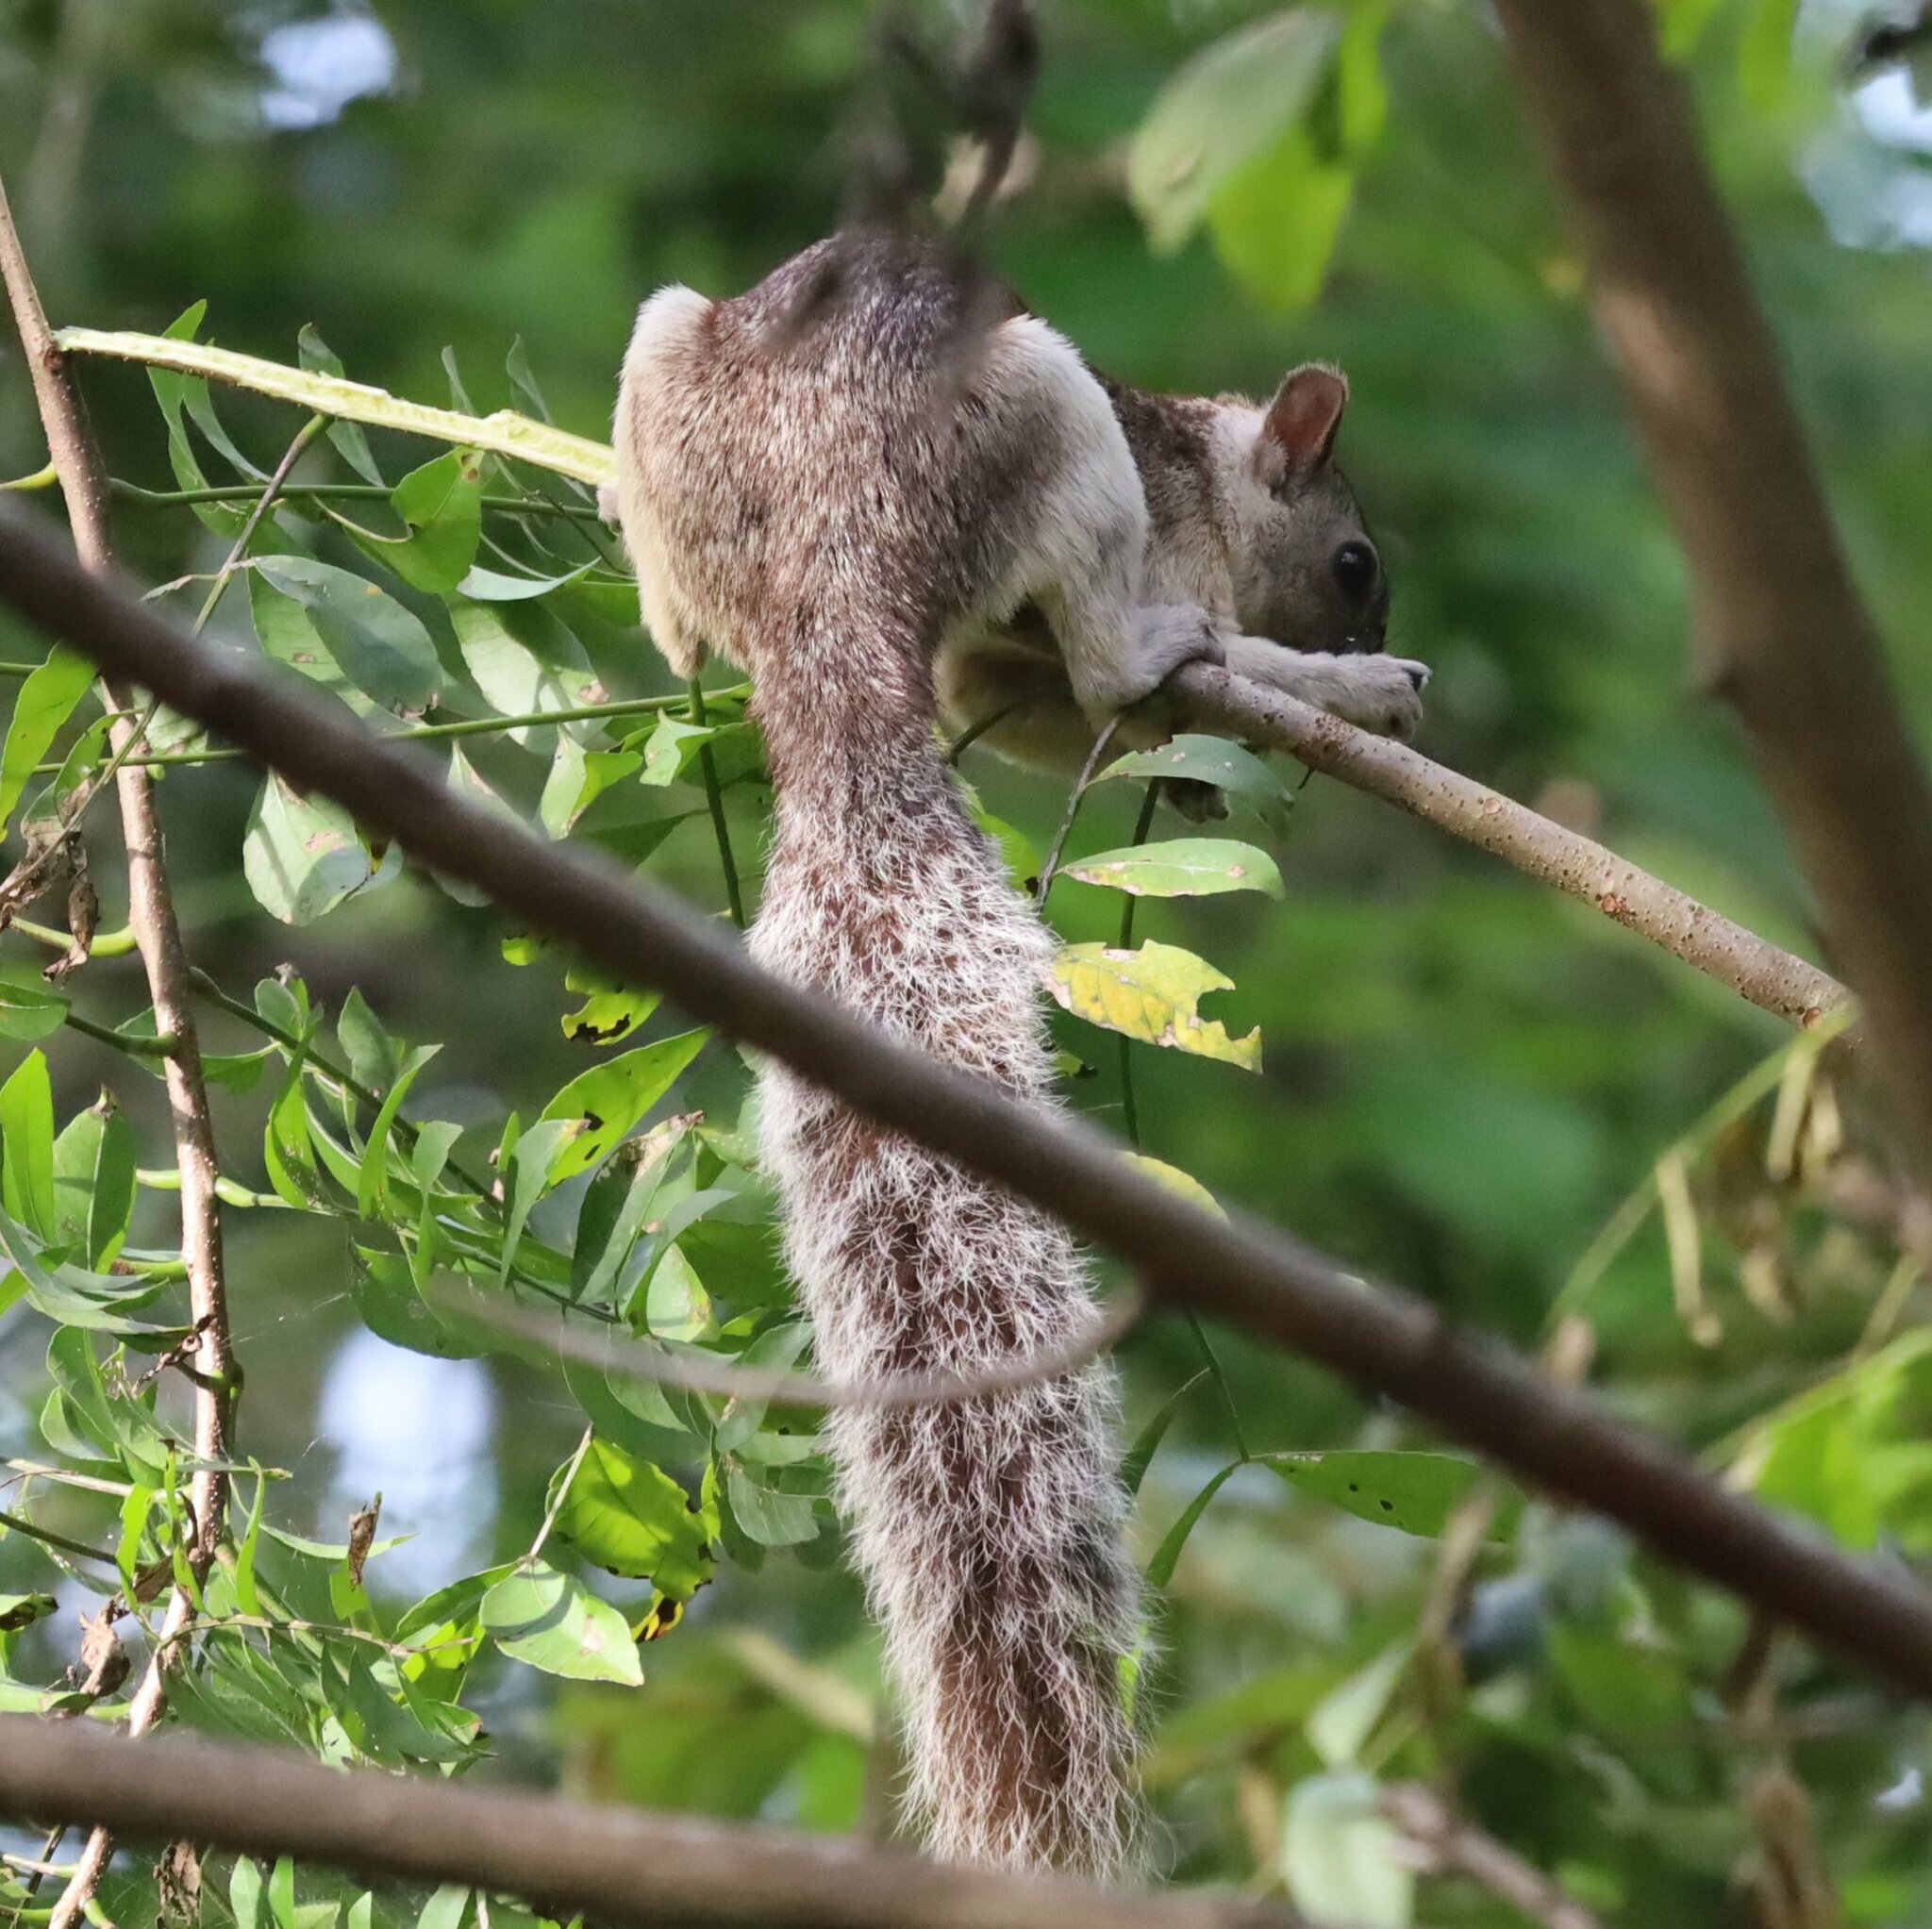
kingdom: Animalia
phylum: Chordata
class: Mammalia
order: Rodentia
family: Sciuridae
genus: Sciurus
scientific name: Sciurus variegatoides
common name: Variegated squirrel
